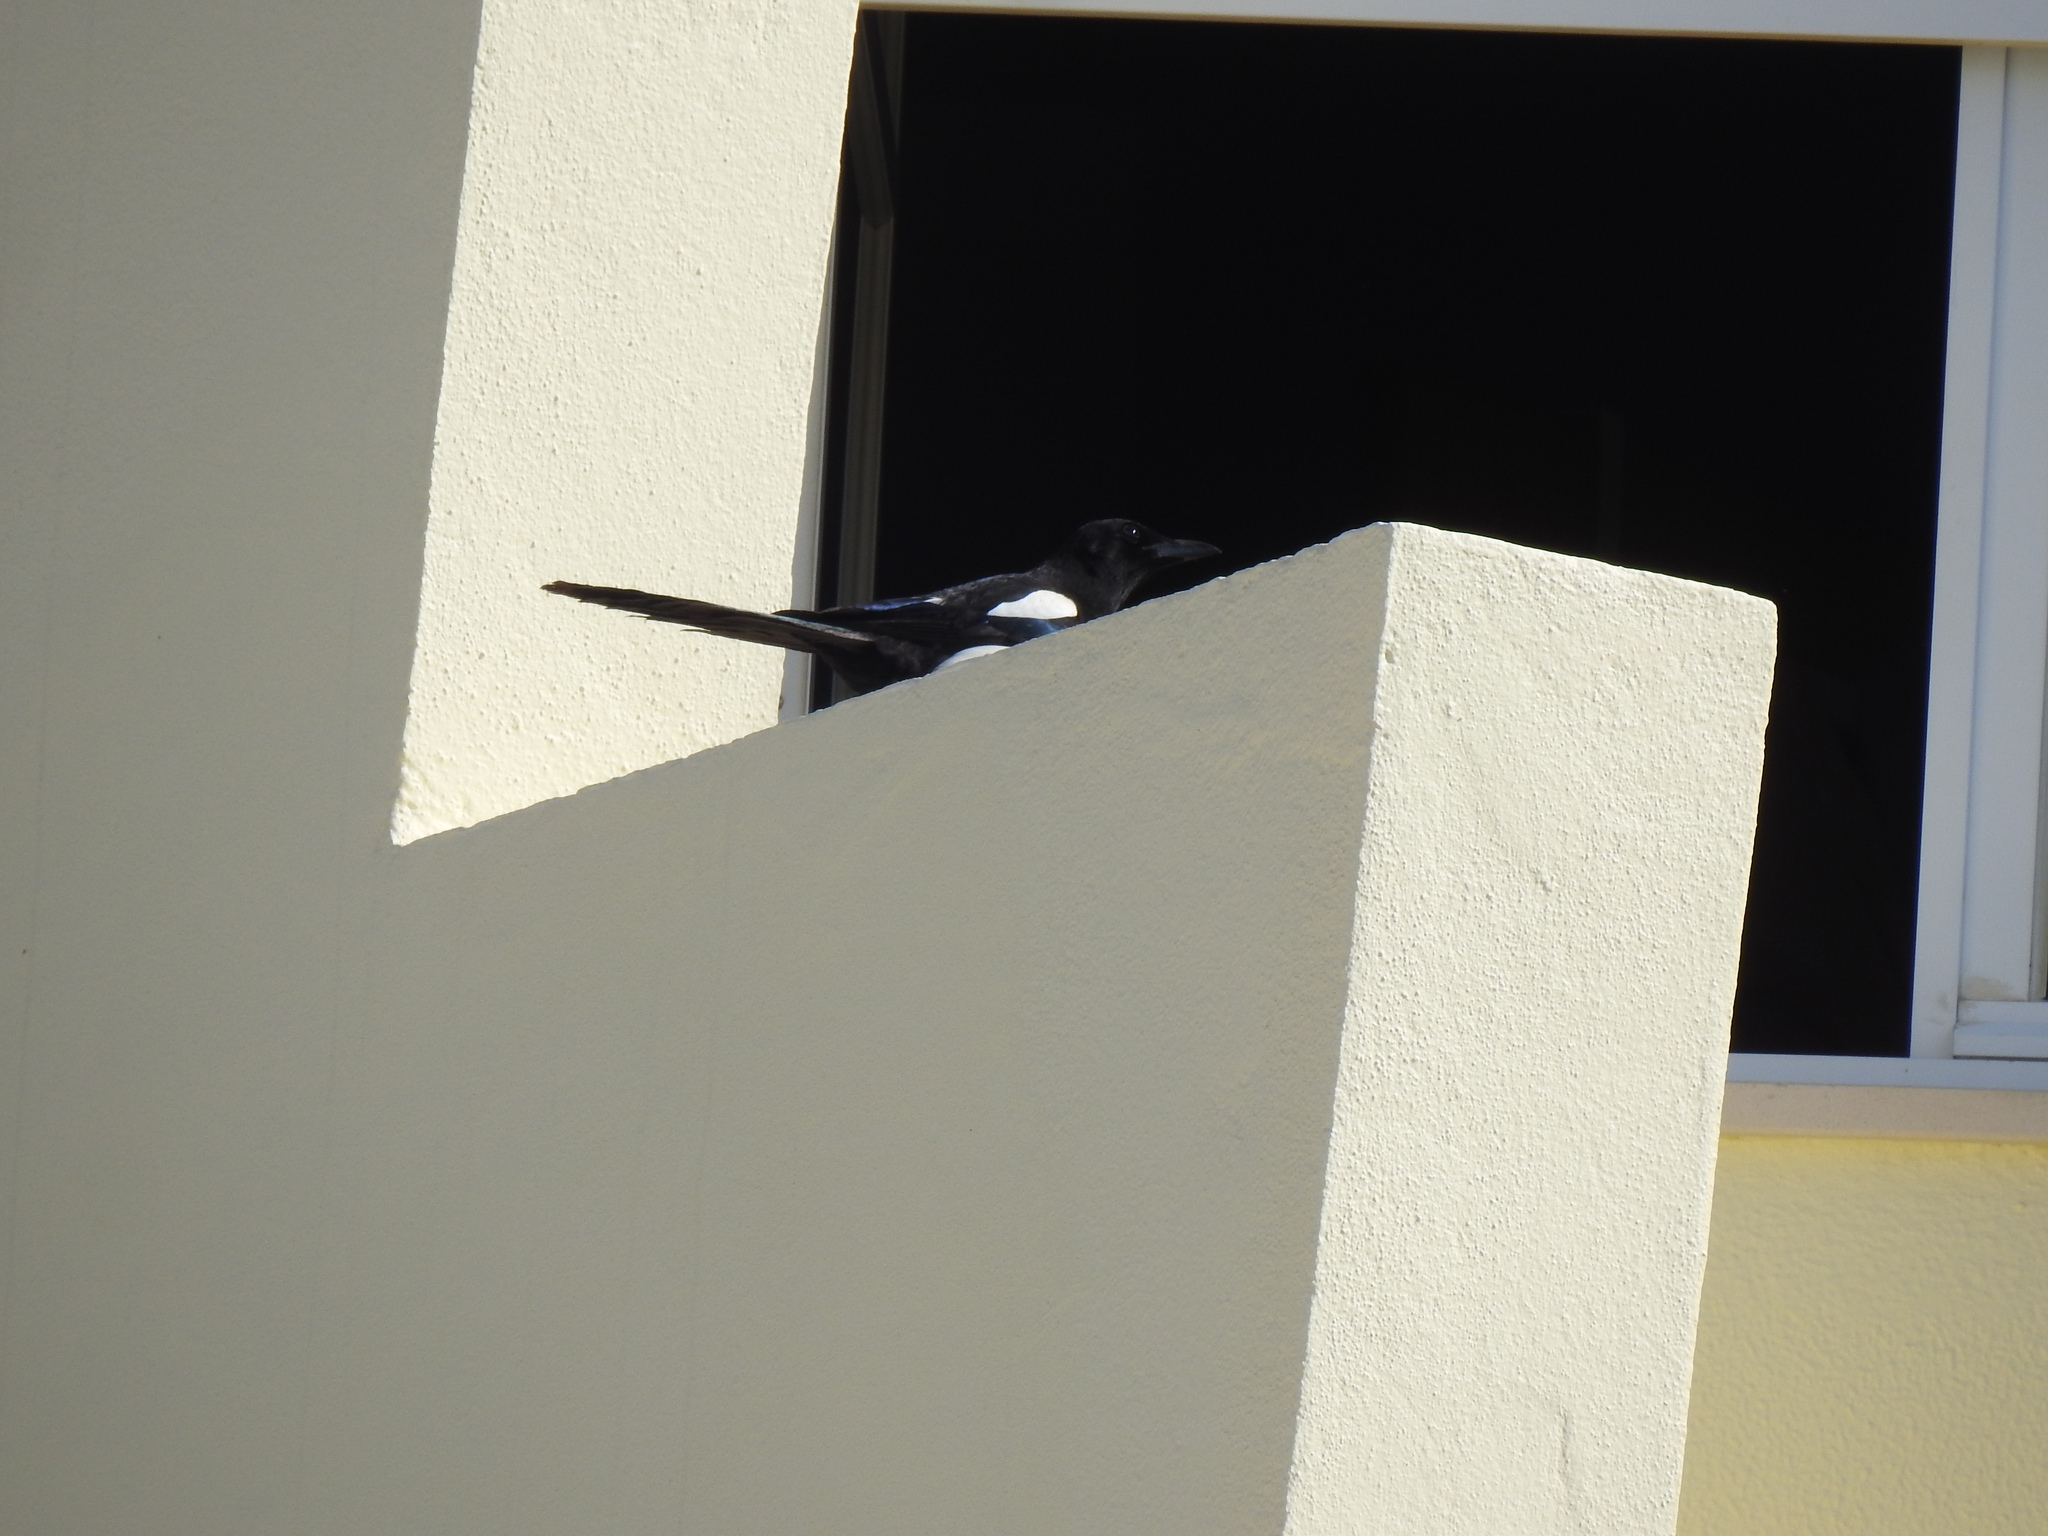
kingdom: Animalia
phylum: Chordata
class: Aves
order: Passeriformes
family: Corvidae
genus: Pica
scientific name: Pica pica
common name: Eurasian magpie
